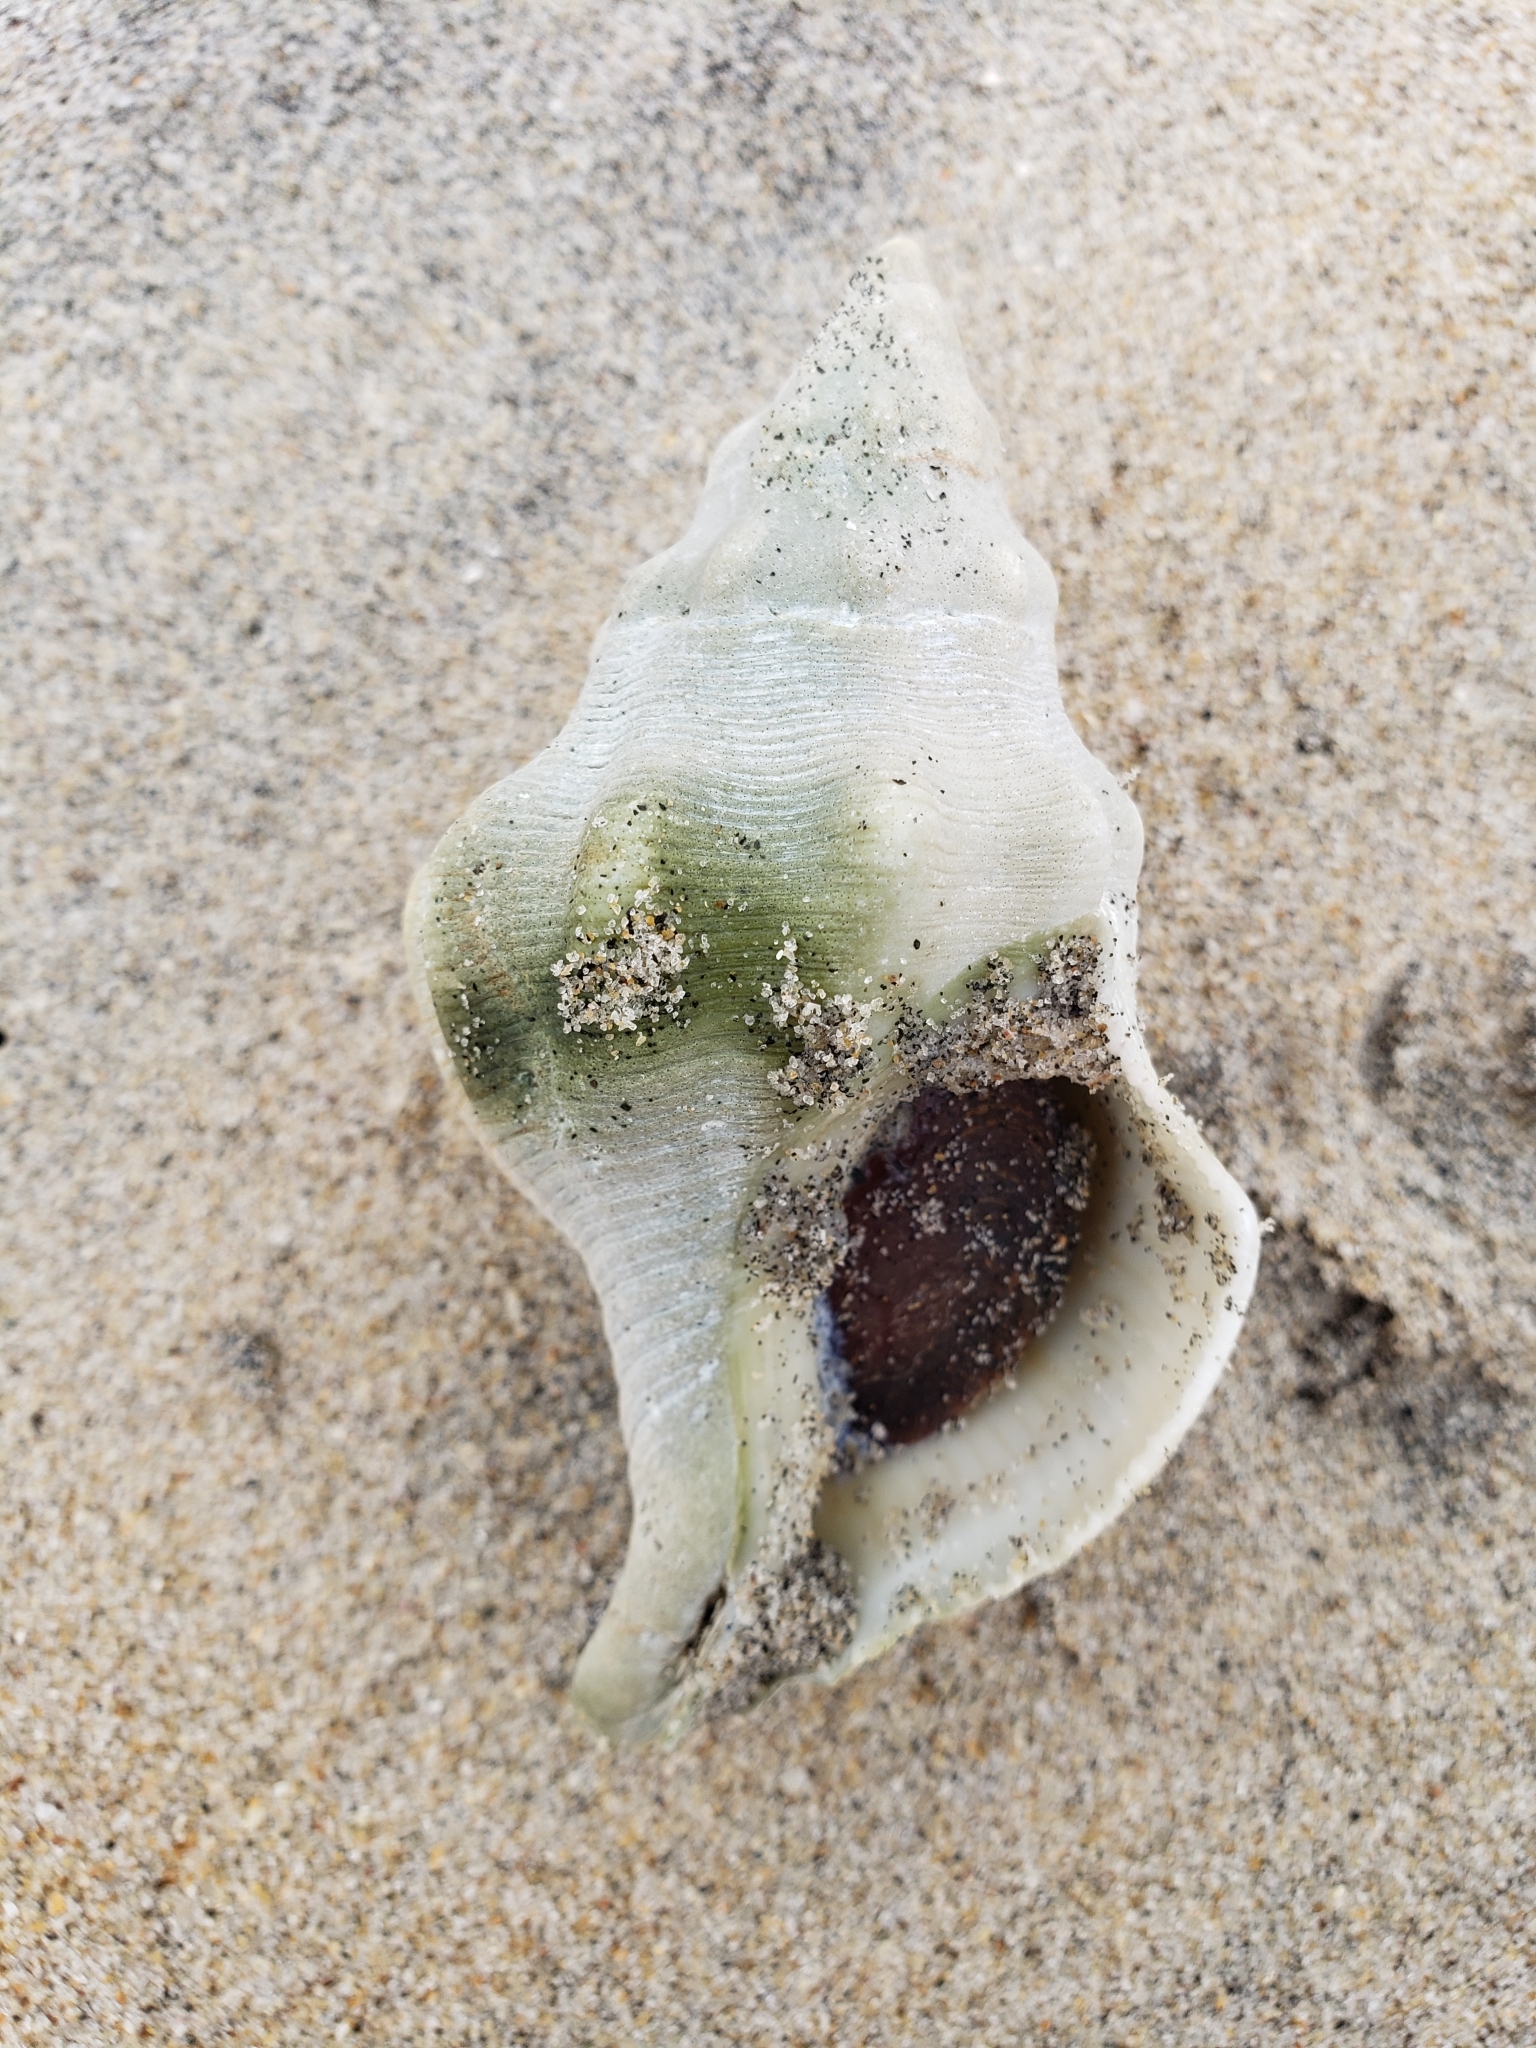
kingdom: Animalia
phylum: Mollusca
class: Gastropoda
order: Neogastropoda
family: Austrosiphonidae
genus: Kelletia
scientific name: Kelletia kelletii
